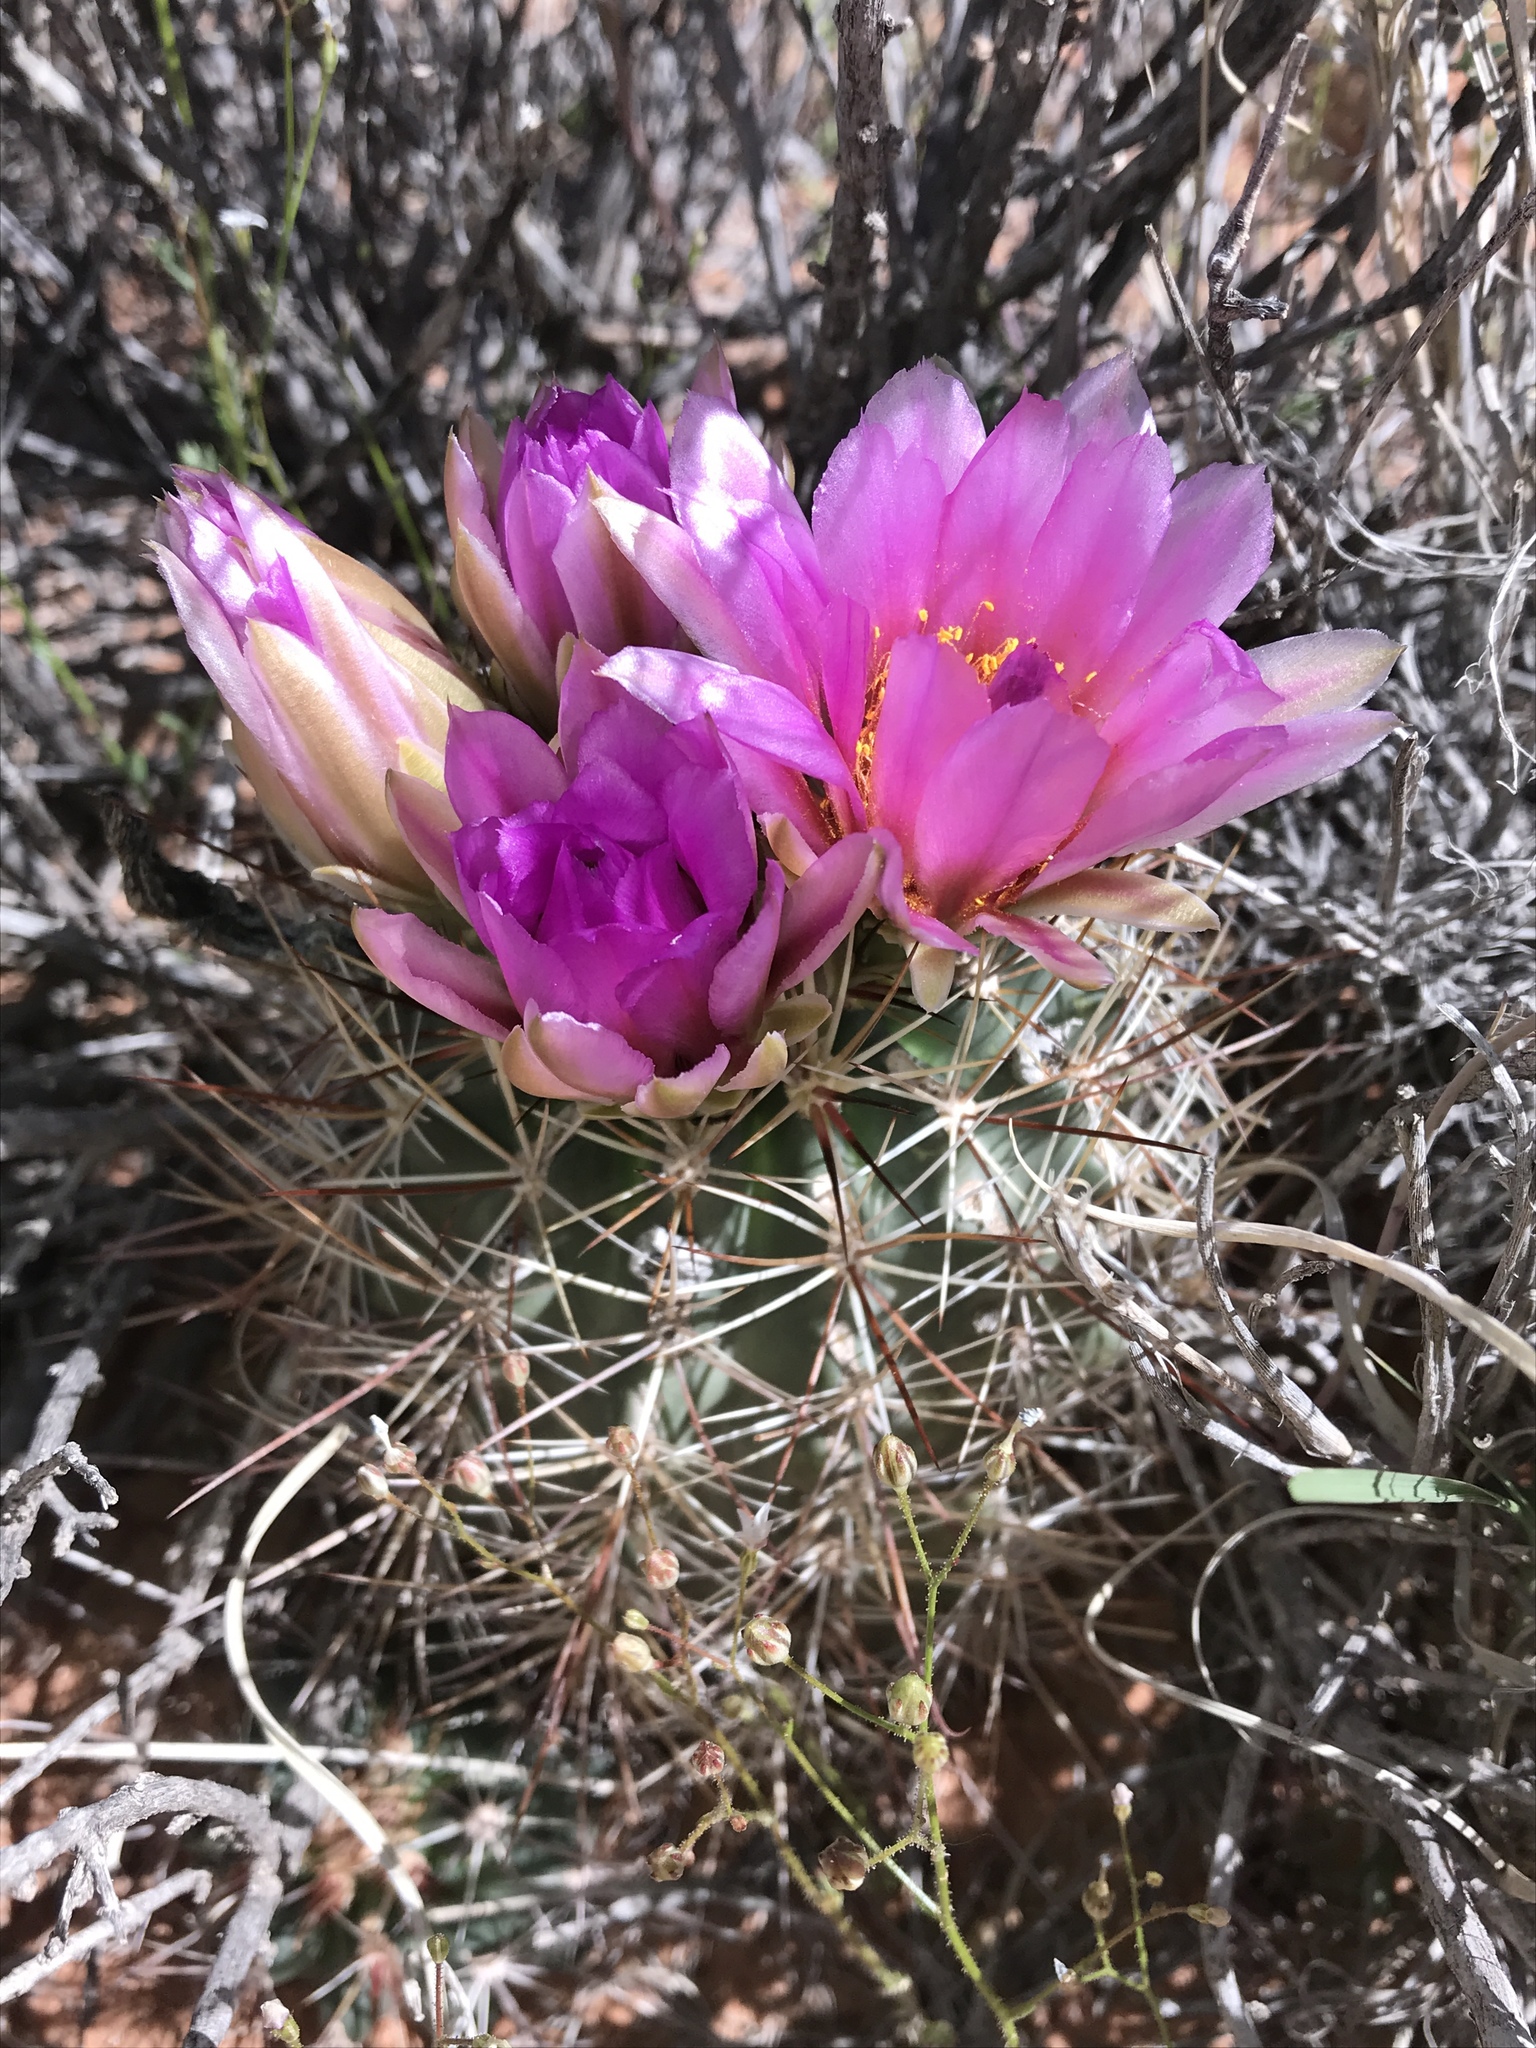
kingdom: Plantae
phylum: Tracheophyta
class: Magnoliopsida
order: Caryophyllales
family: Cactaceae
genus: Sclerocactus
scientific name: Sclerocactus parviflorus
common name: Small-flower fishhook cactus
